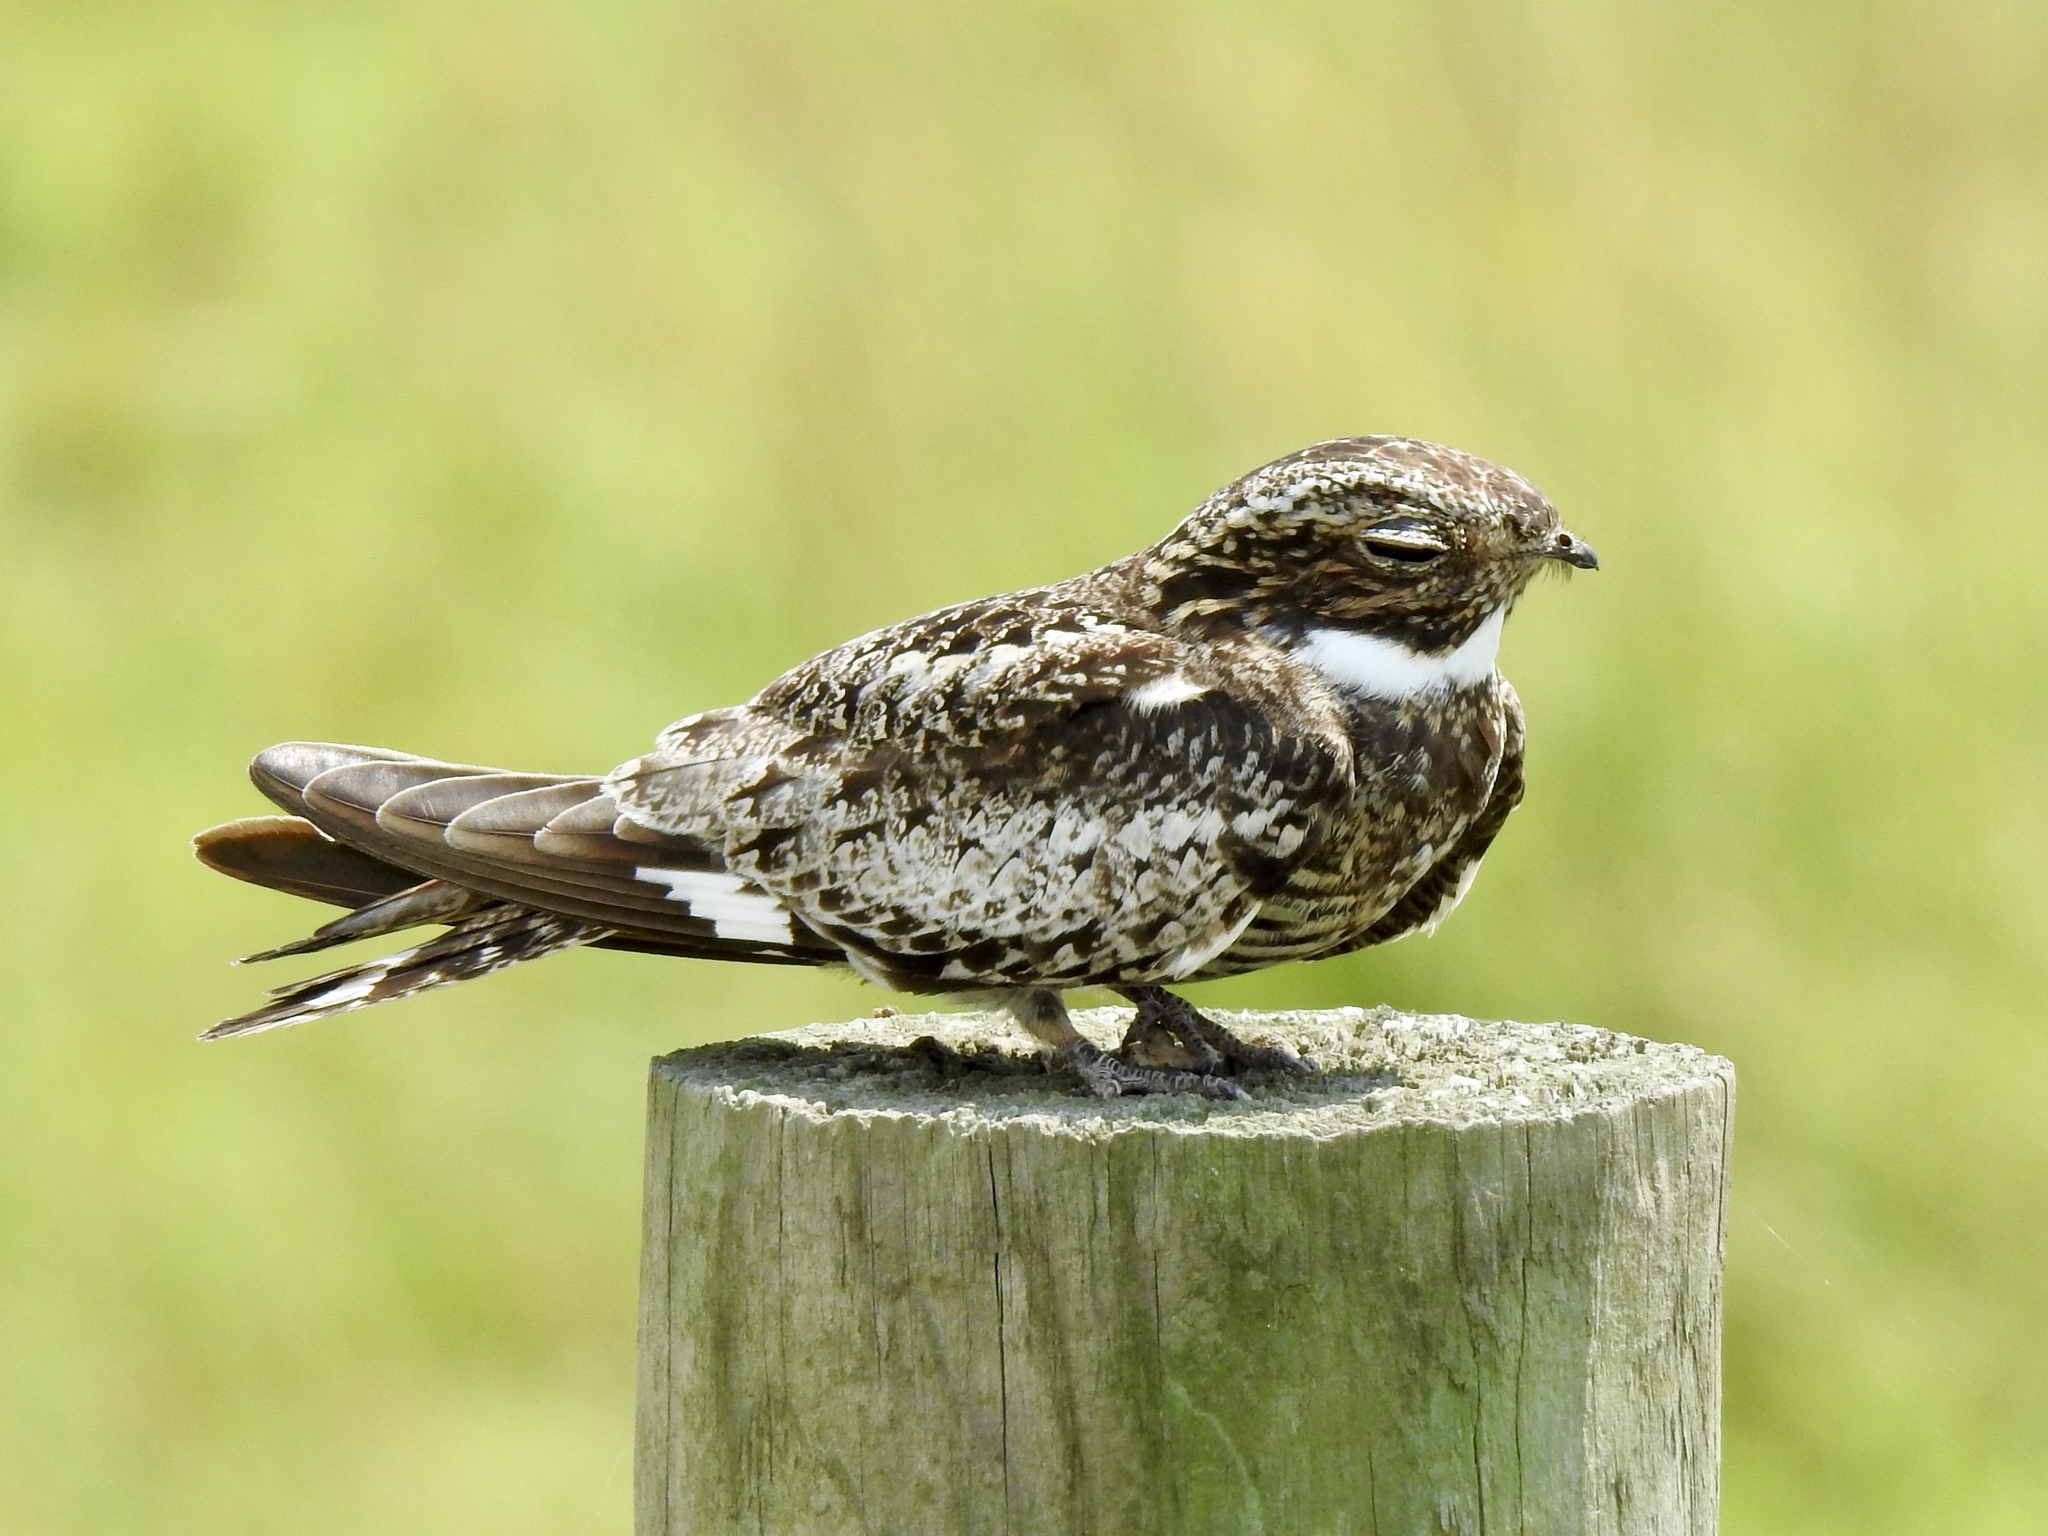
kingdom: Animalia
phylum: Chordata
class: Aves
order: Caprimulgiformes
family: Caprimulgidae
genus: Chordeiles
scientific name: Chordeiles minor
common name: Common nighthawk
